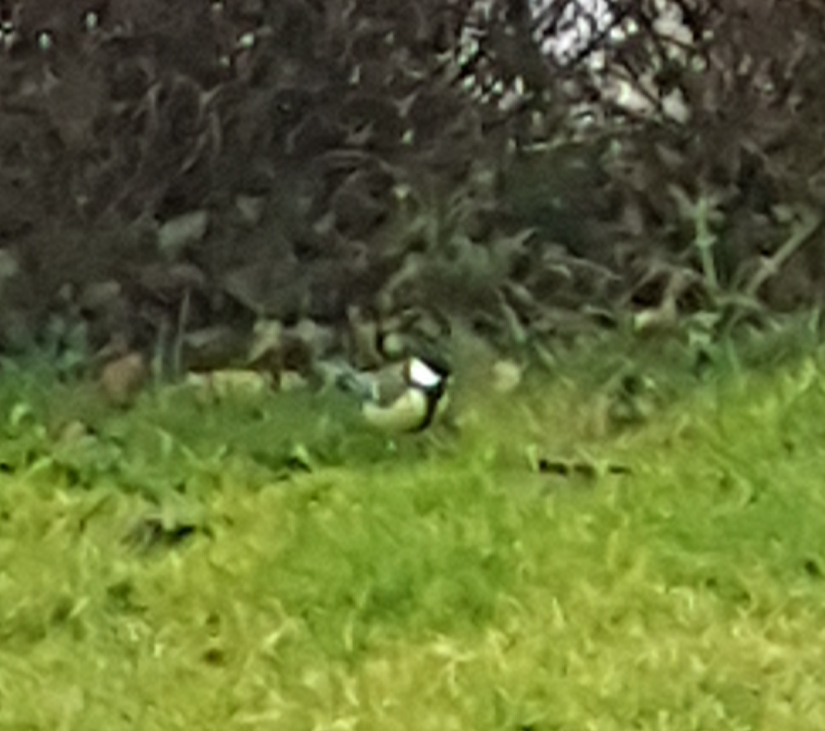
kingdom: Animalia
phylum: Chordata
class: Aves
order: Passeriformes
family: Paridae
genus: Parus
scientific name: Parus major
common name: Great tit
